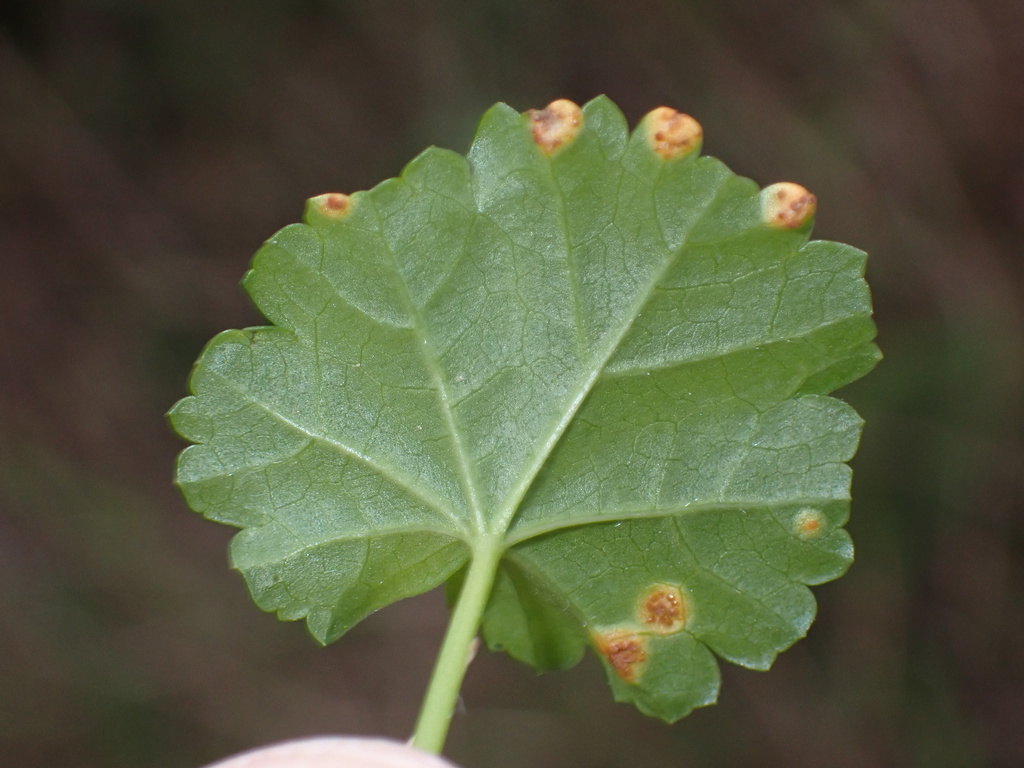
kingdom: Fungi
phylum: Basidiomycota
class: Pucciniomycetes
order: Pucciniales
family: Pucciniaceae
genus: Puccinia
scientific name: Puccinia malvacearum
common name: Hollyhock rust
